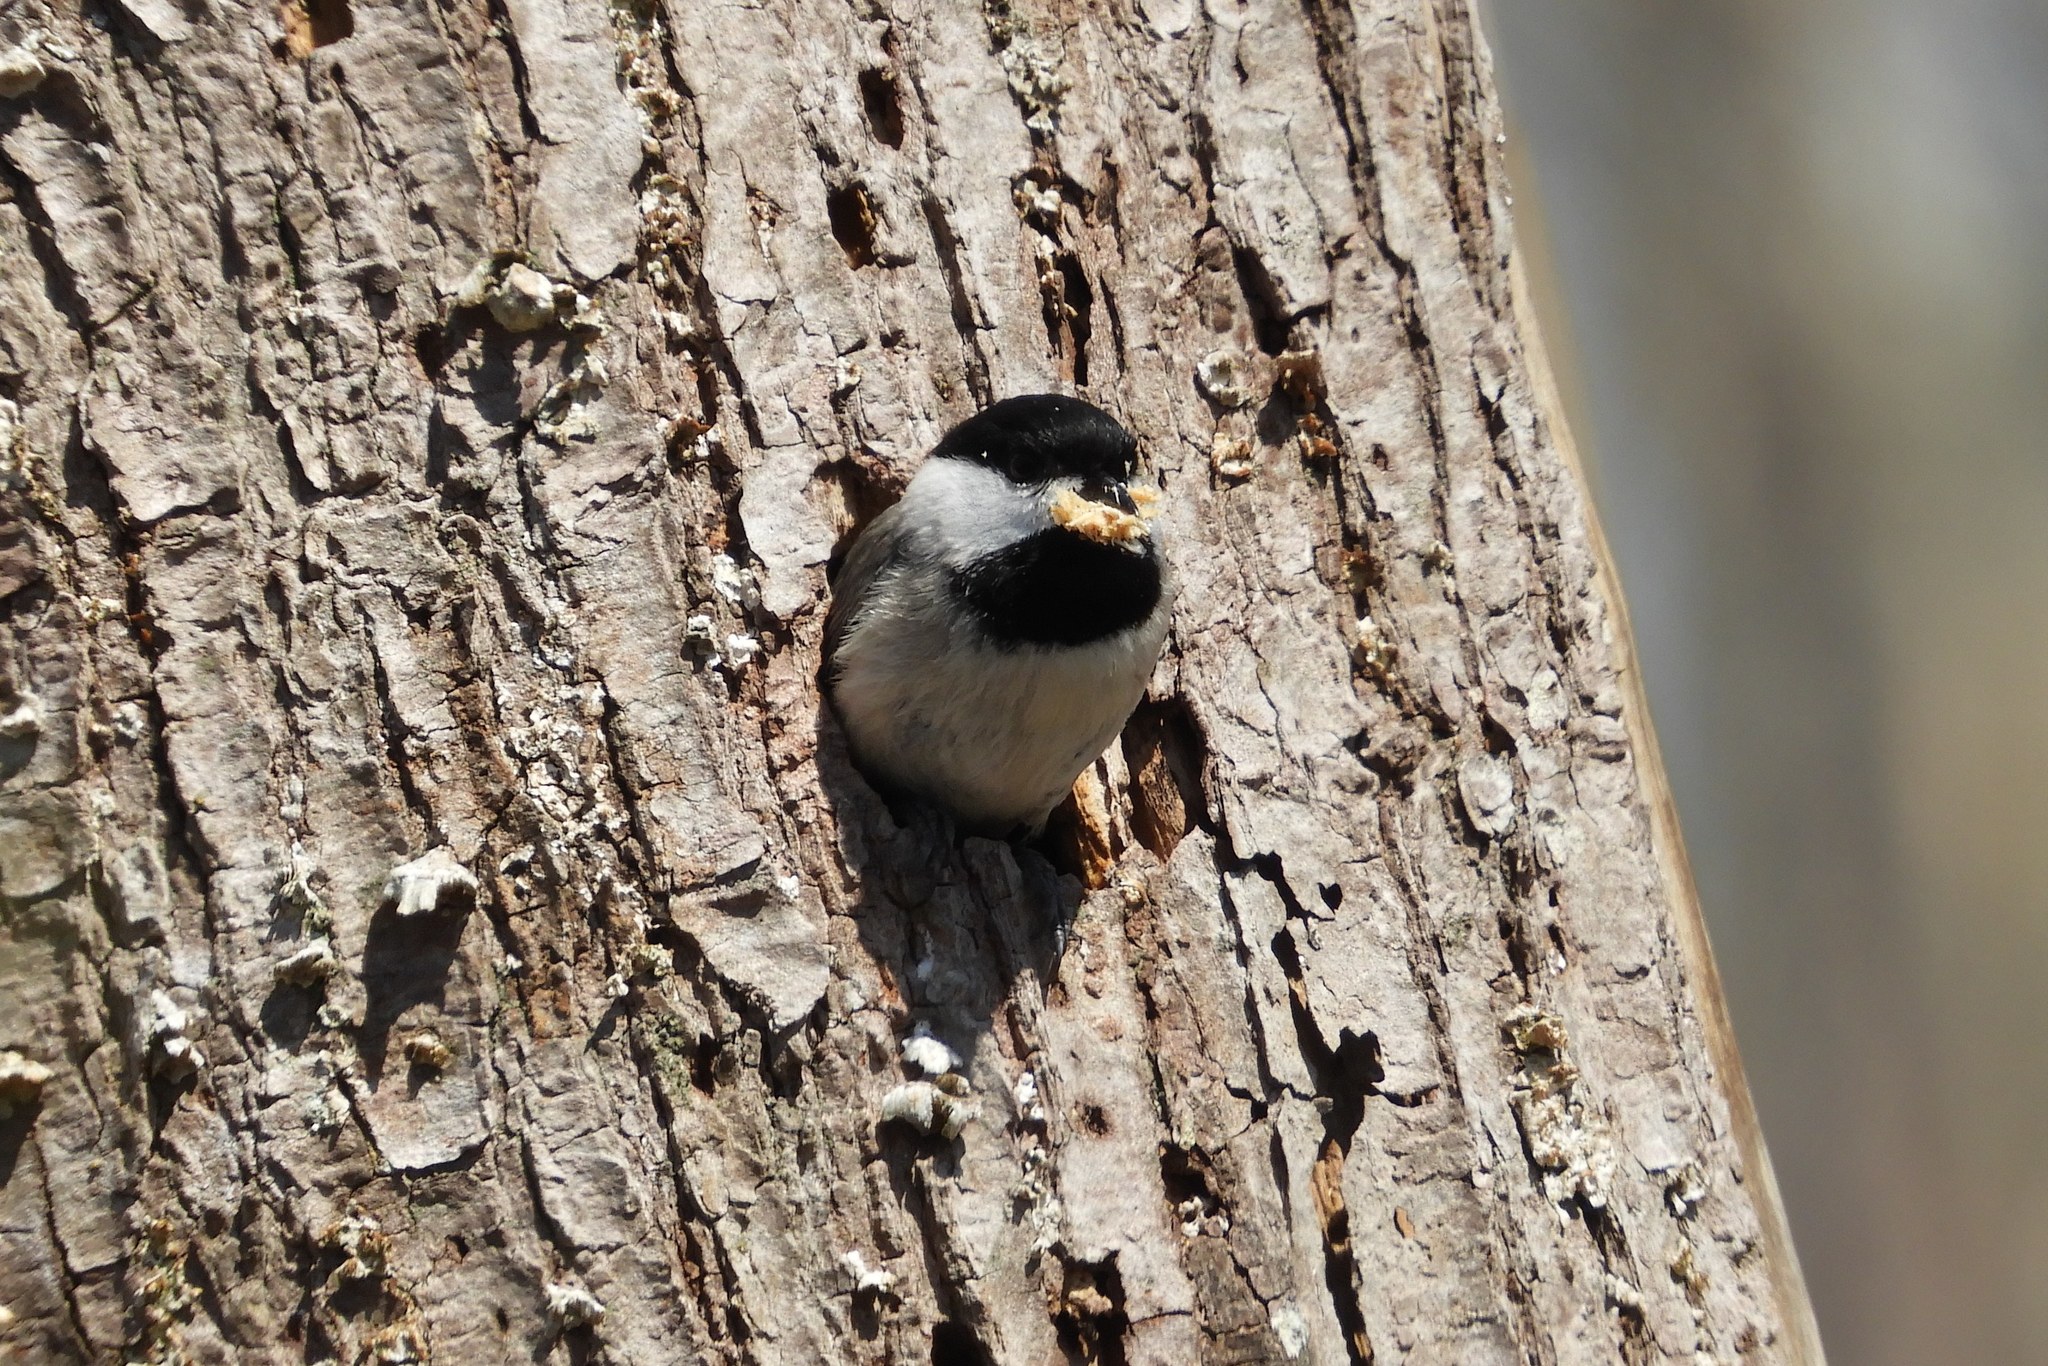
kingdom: Animalia
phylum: Chordata
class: Aves
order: Passeriformes
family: Paridae
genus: Poecile
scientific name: Poecile carolinensis
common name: Carolina chickadee
